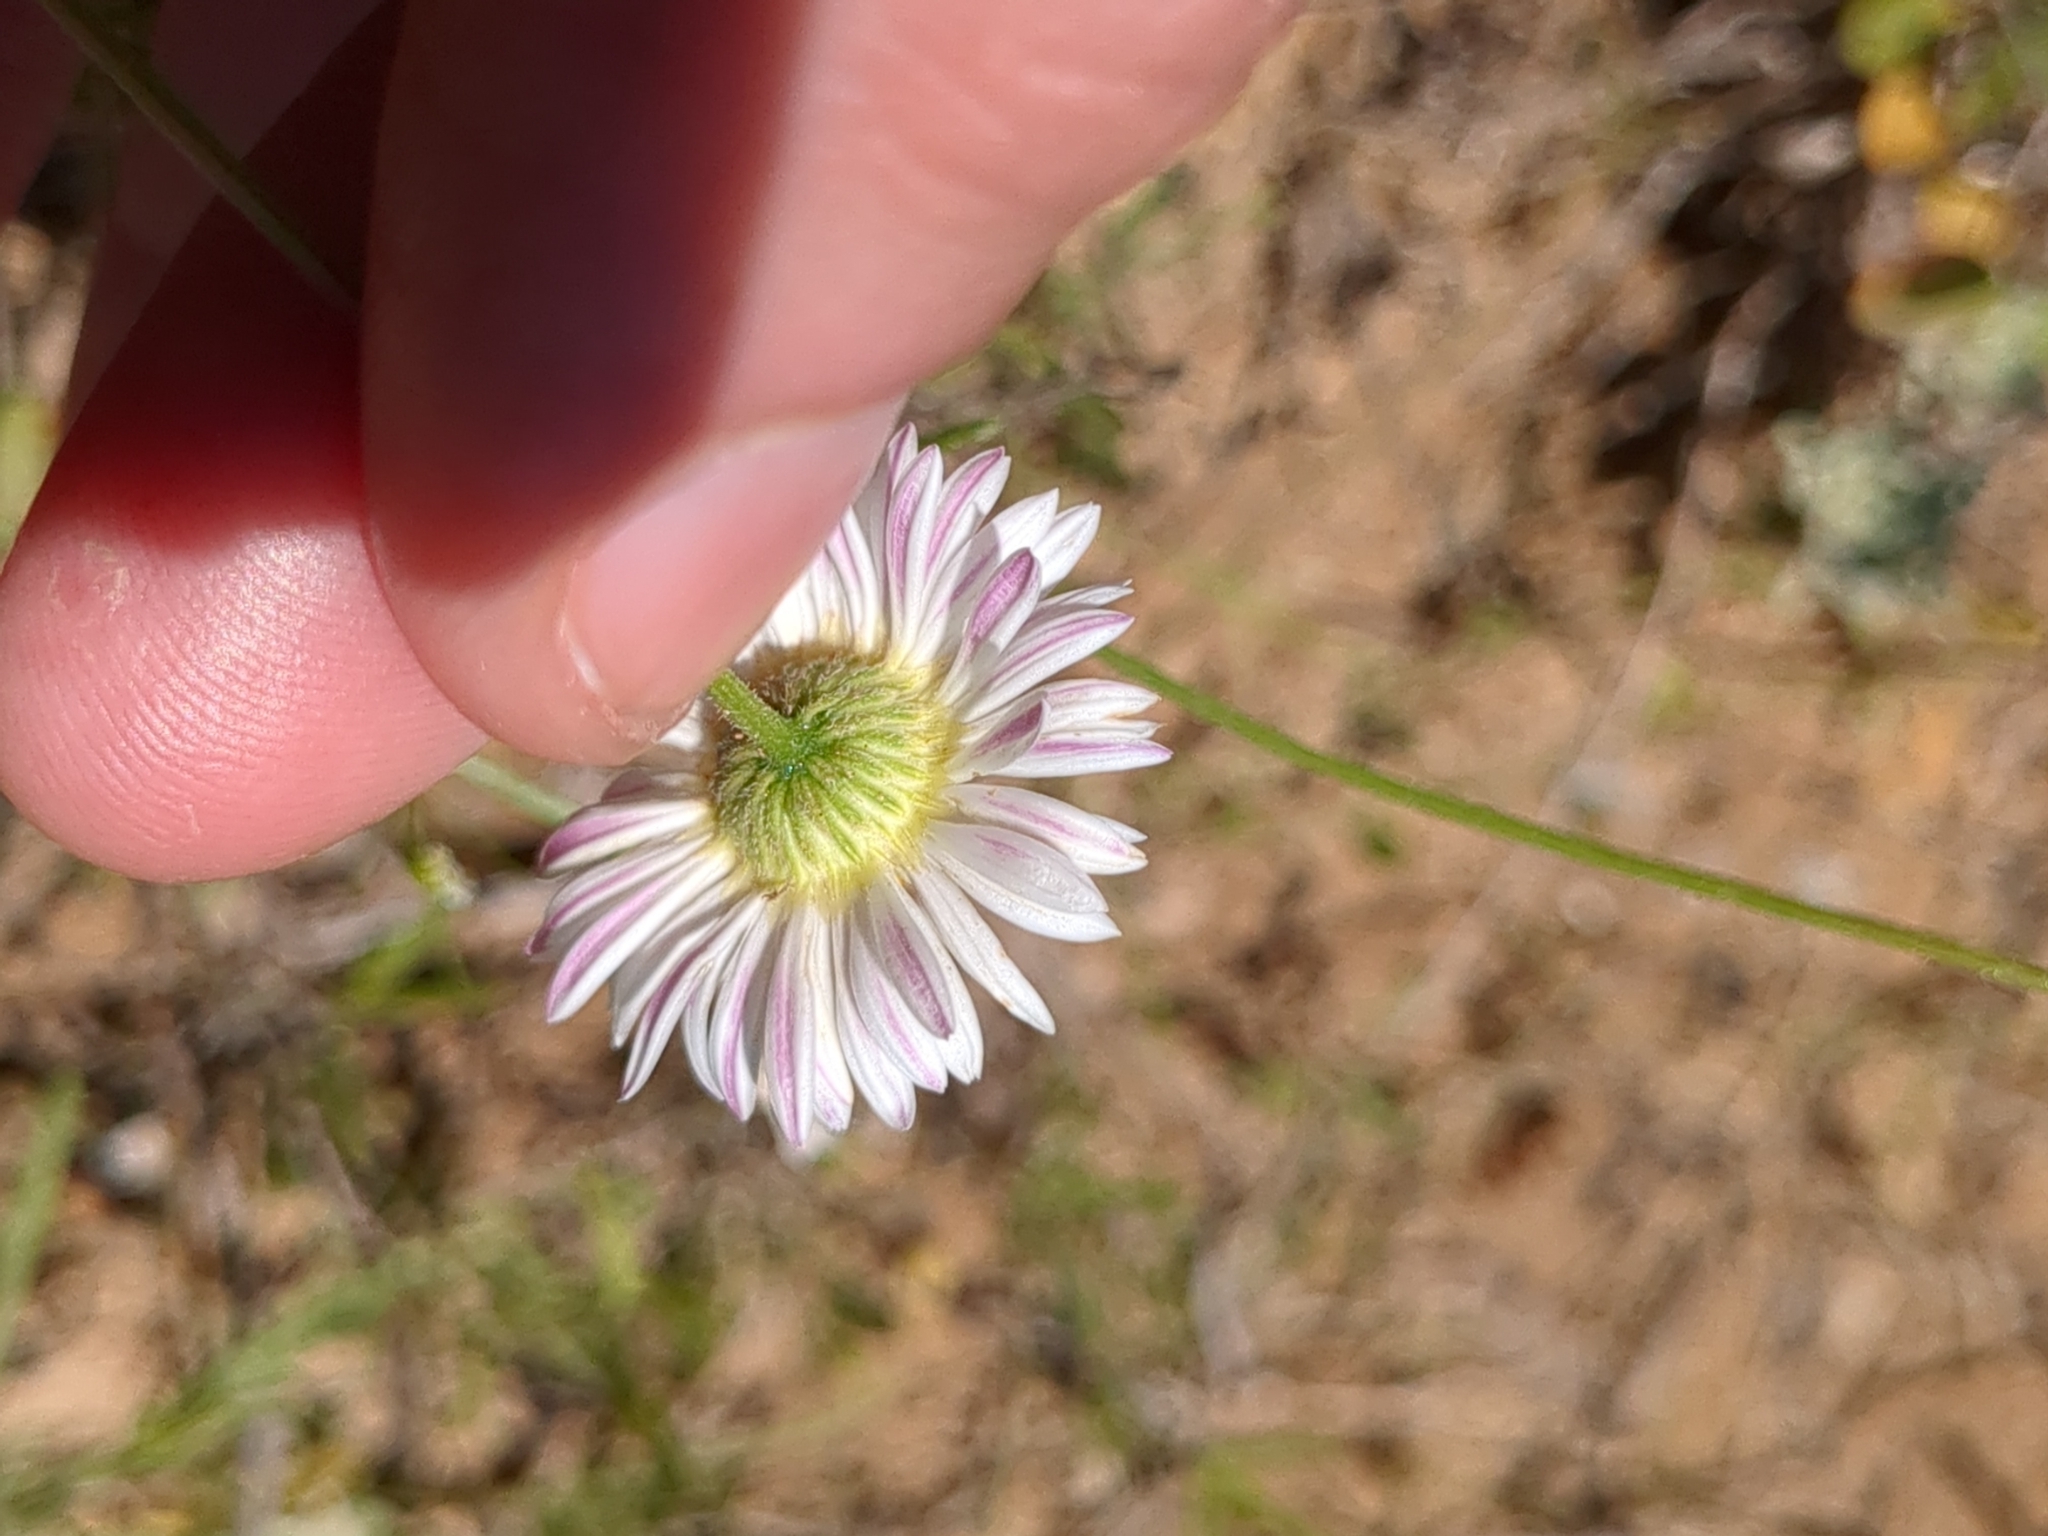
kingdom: Plantae
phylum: Tracheophyta
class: Magnoliopsida
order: Asterales
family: Asteraceae
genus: Erigeron
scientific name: Erigeron modestus
